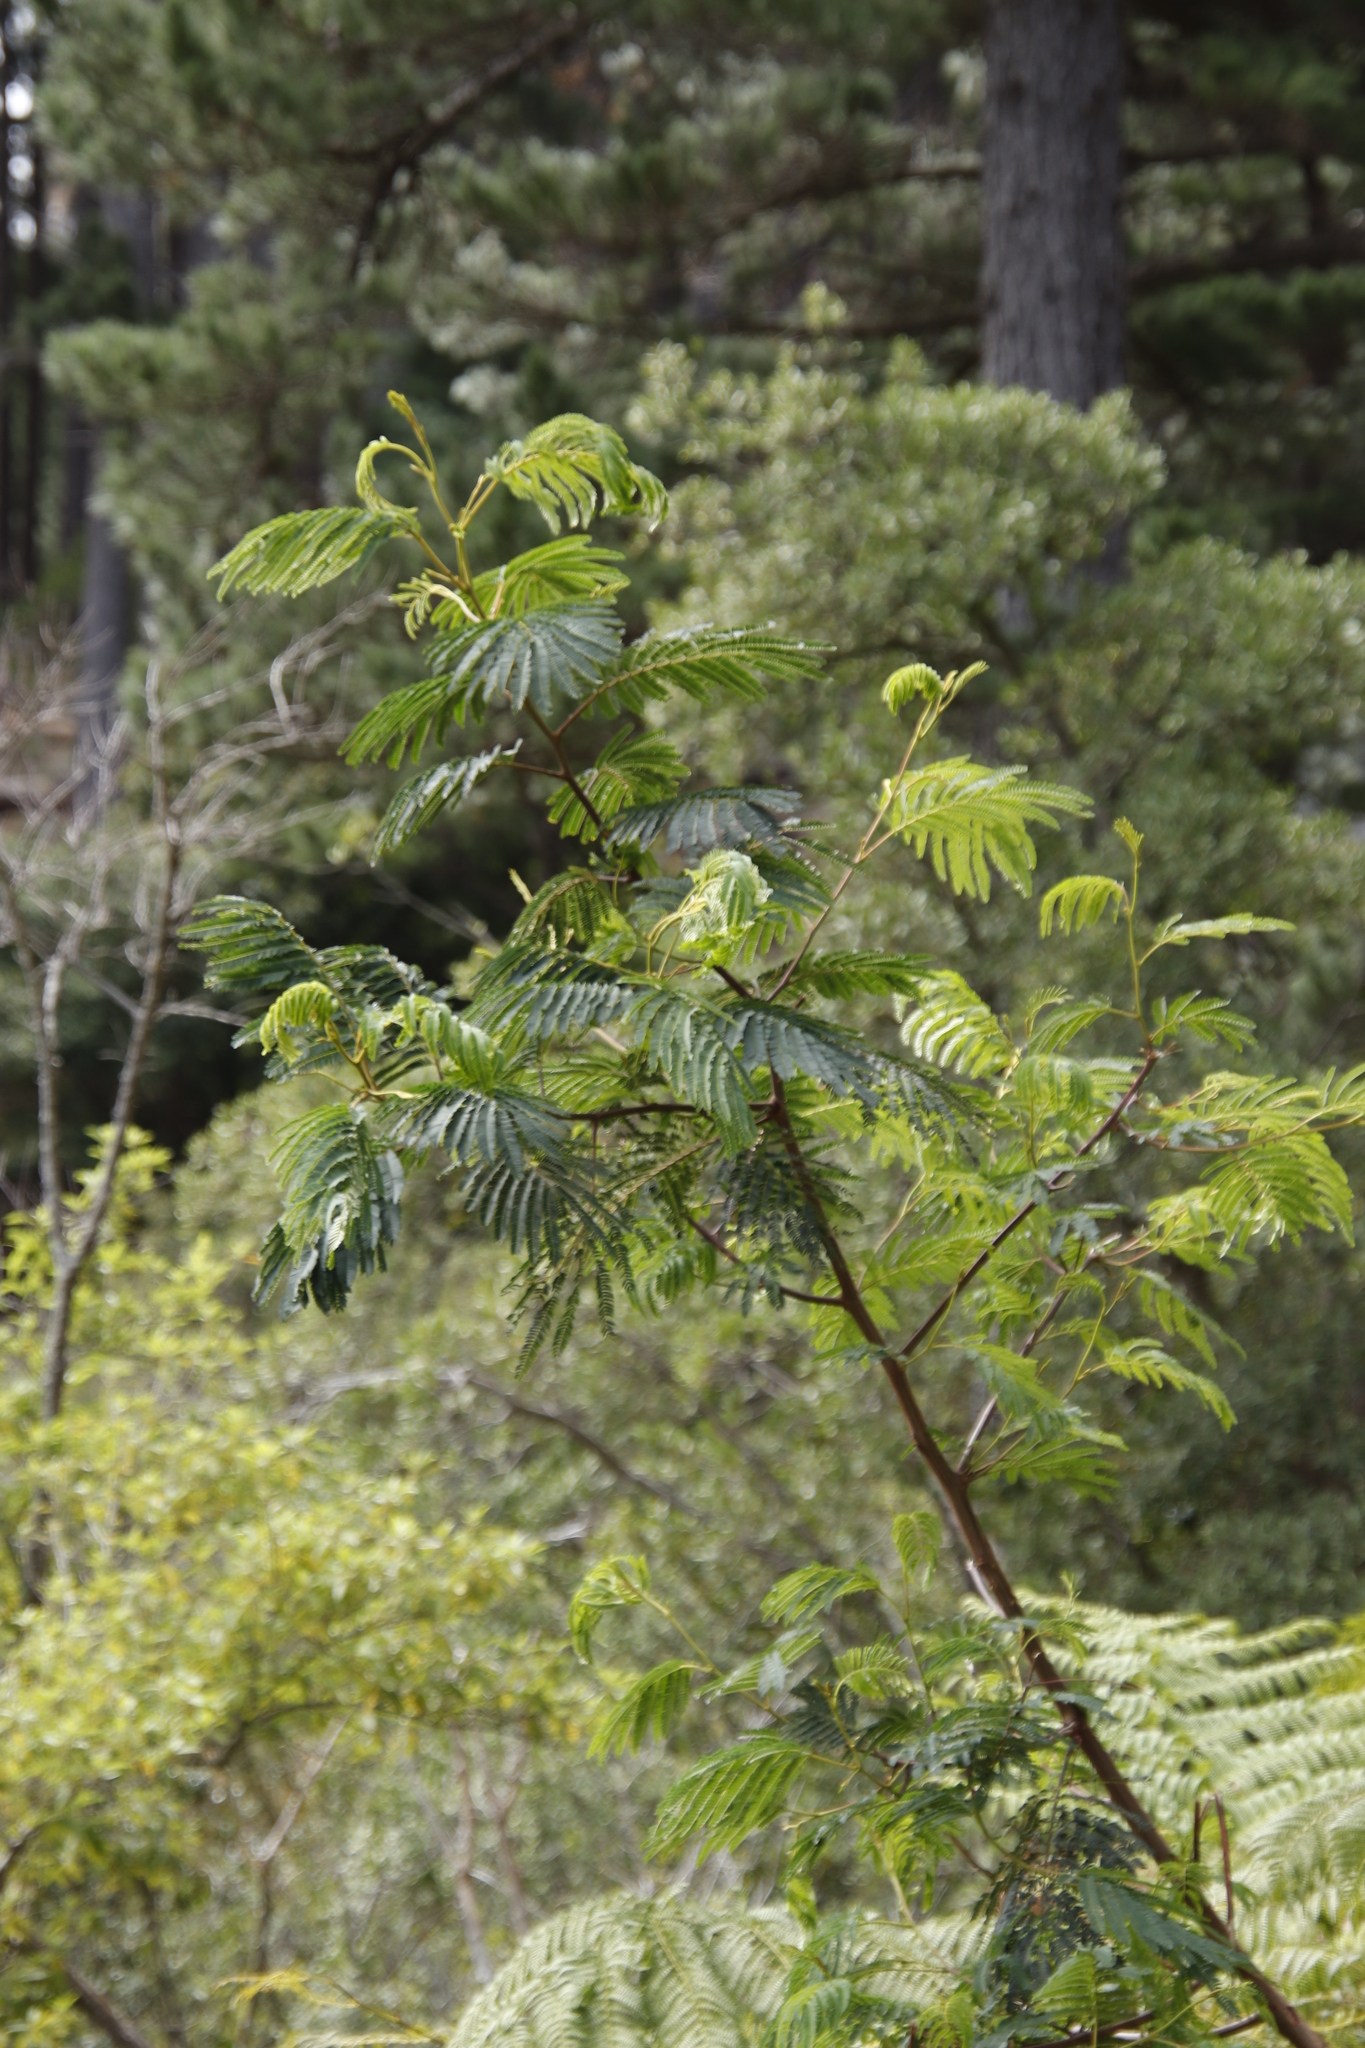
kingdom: Plantae
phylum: Tracheophyta
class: Magnoliopsida
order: Fabales
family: Fabaceae
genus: Paraserianthes
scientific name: Paraserianthes lophantha
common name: Plume albizia
